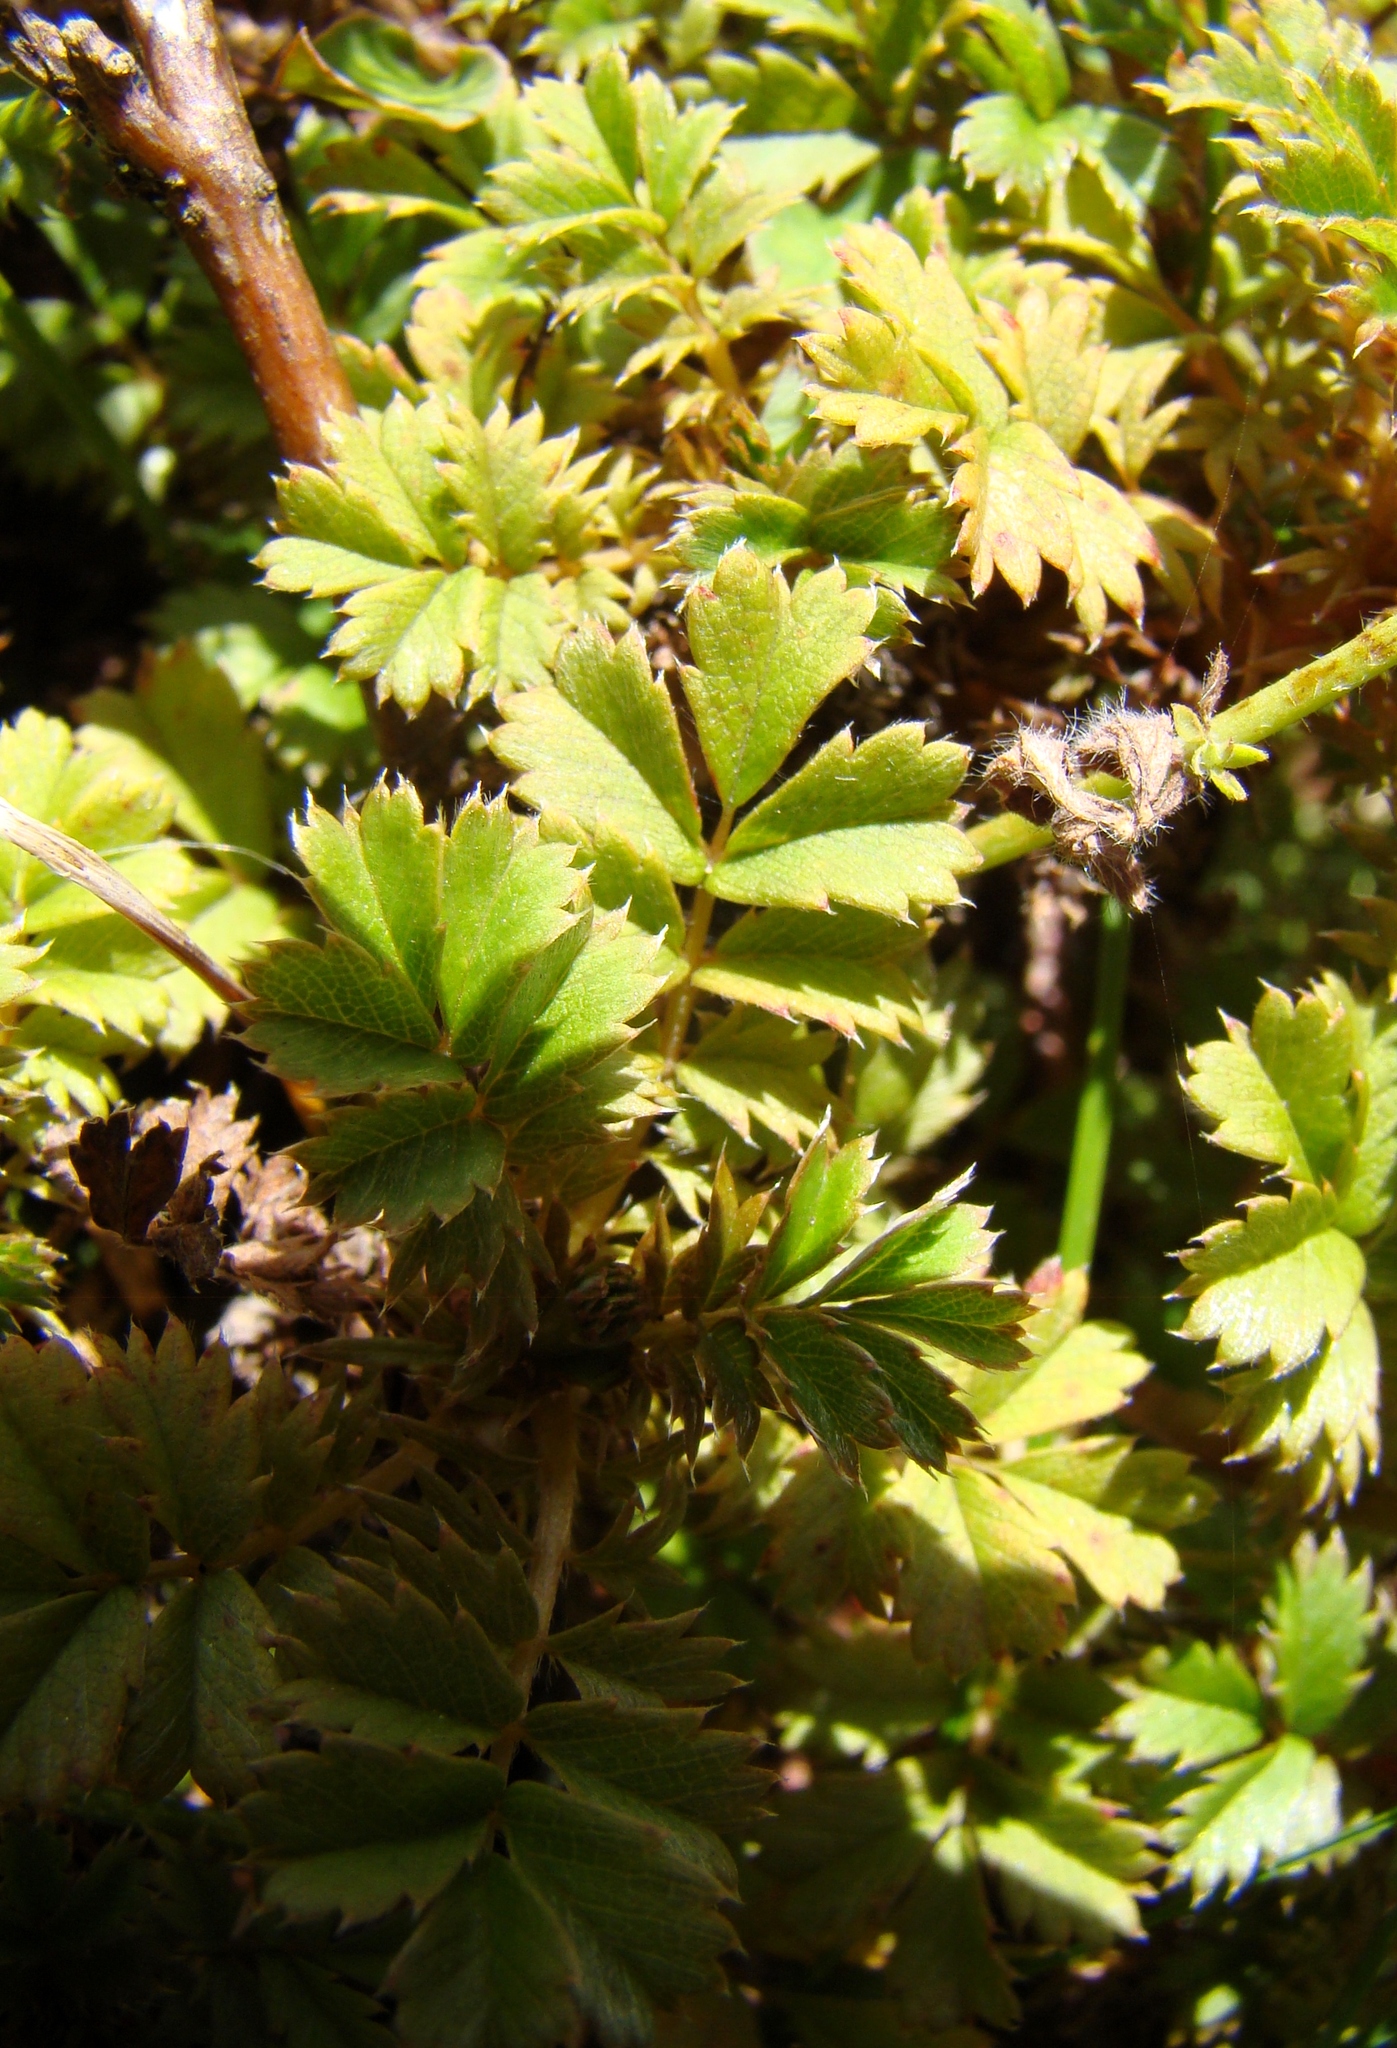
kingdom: Plantae
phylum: Tracheophyta
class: Magnoliopsida
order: Rosales
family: Rosaceae
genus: Acaena
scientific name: Acaena anserinifolia
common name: Bronze pirri-pirri-bur
